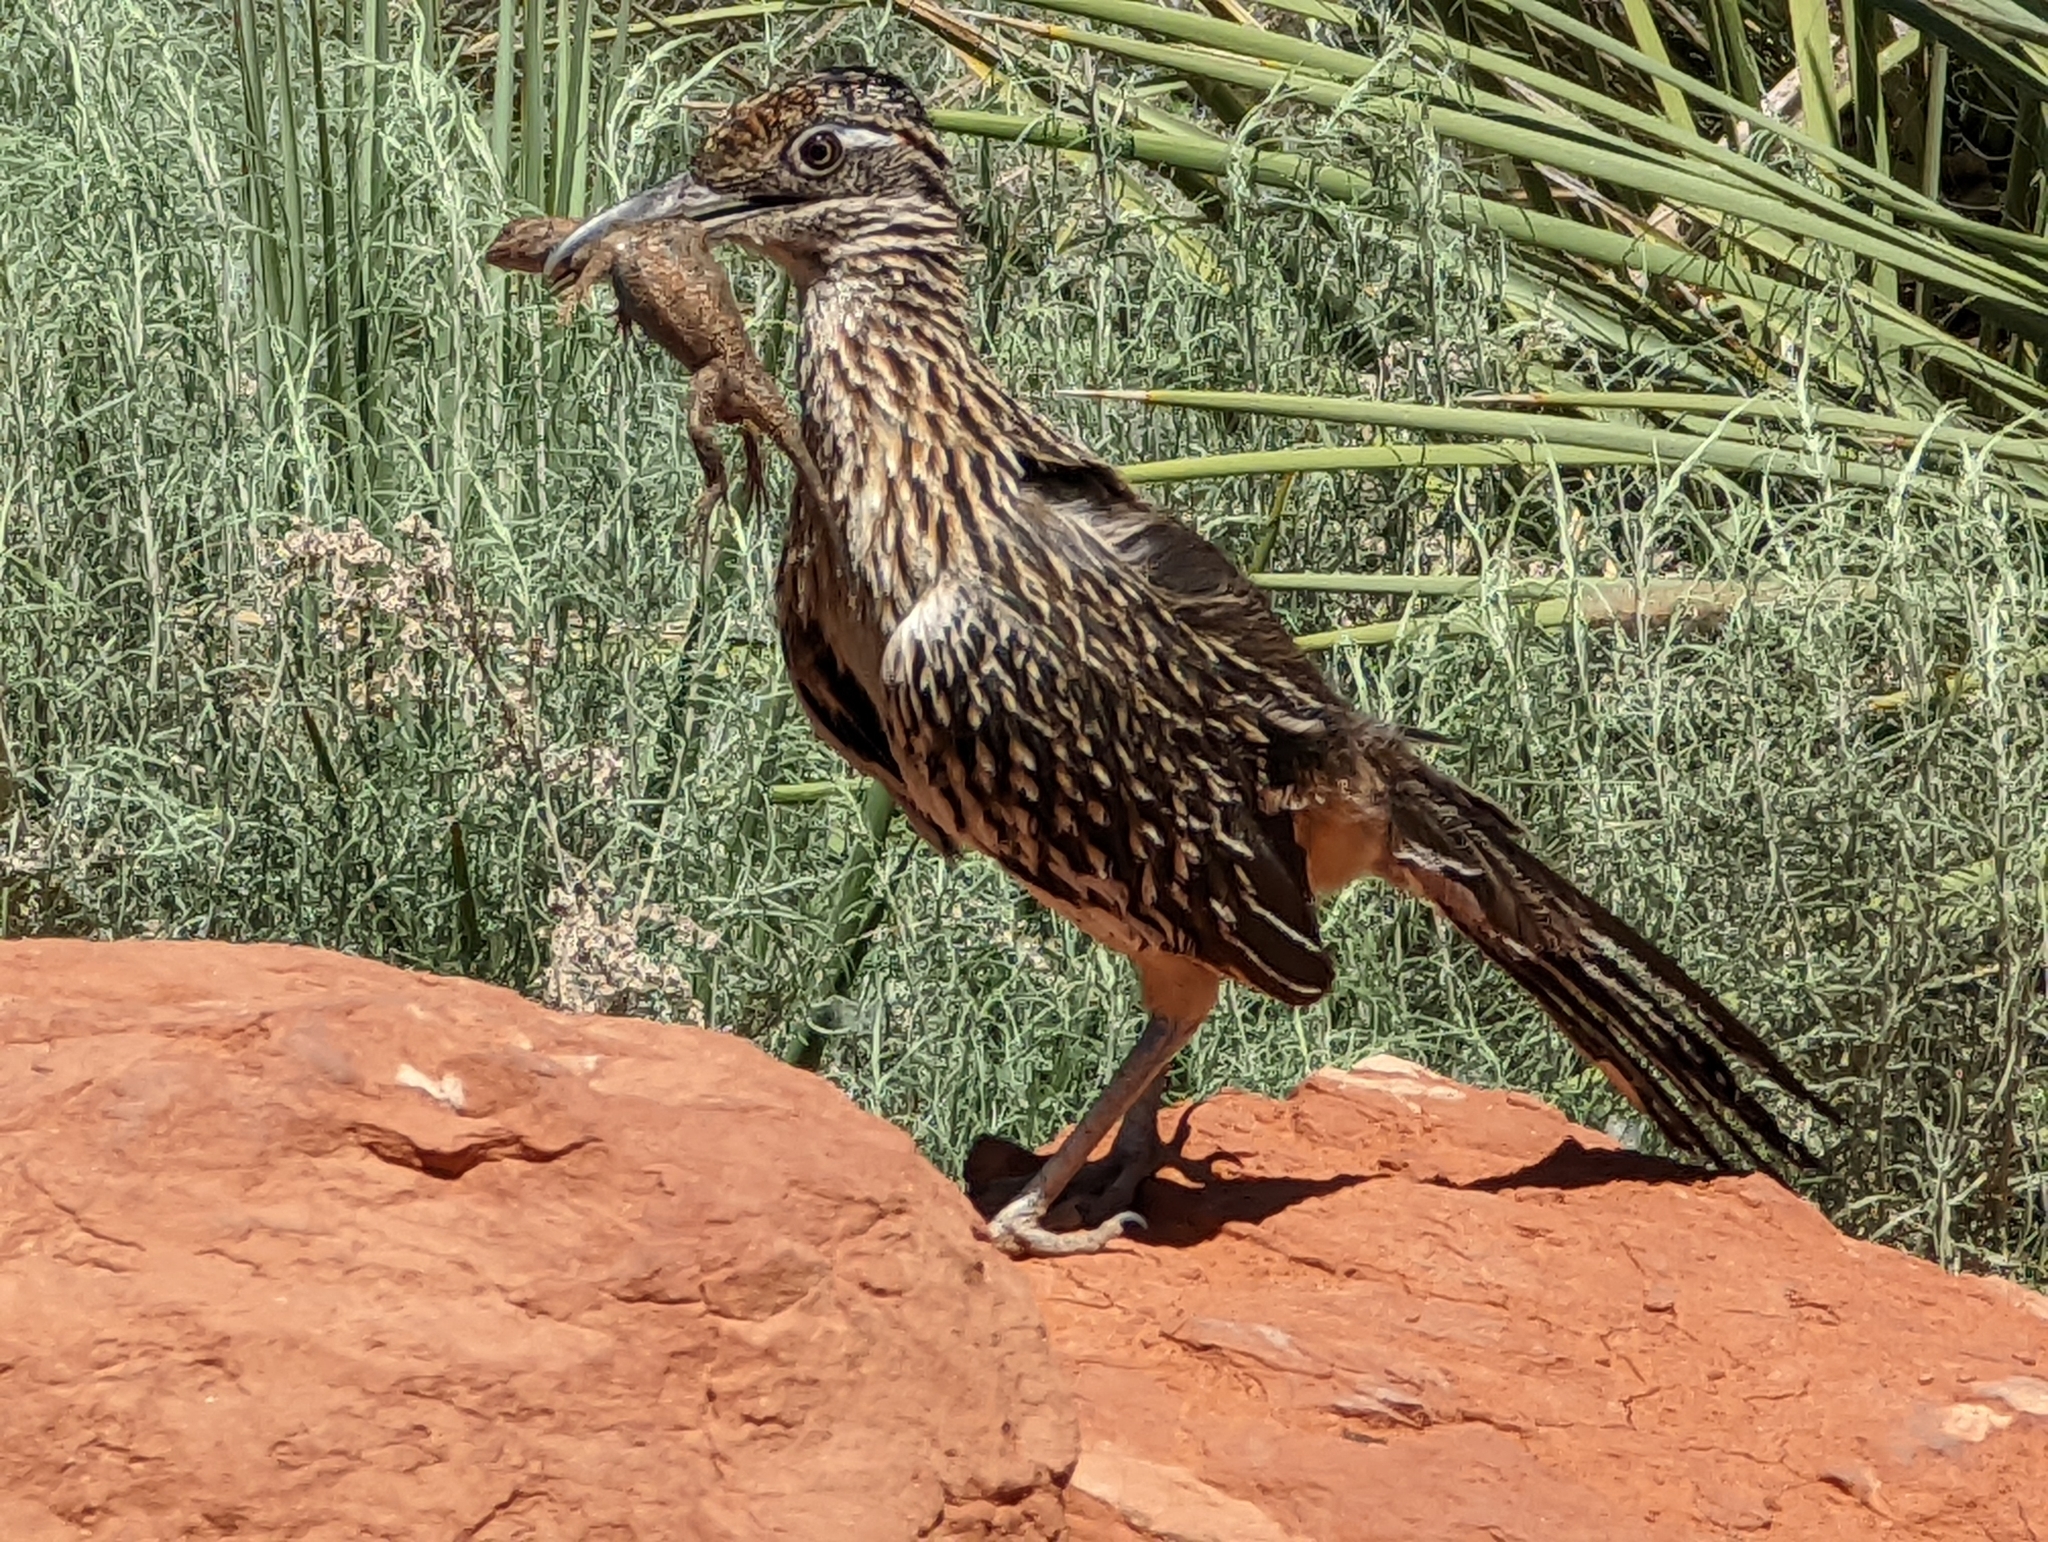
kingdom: Animalia
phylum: Chordata
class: Squamata
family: Phrynosomatidae
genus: Sceloporus
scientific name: Sceloporus tristichus
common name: Plateau fence lizard
